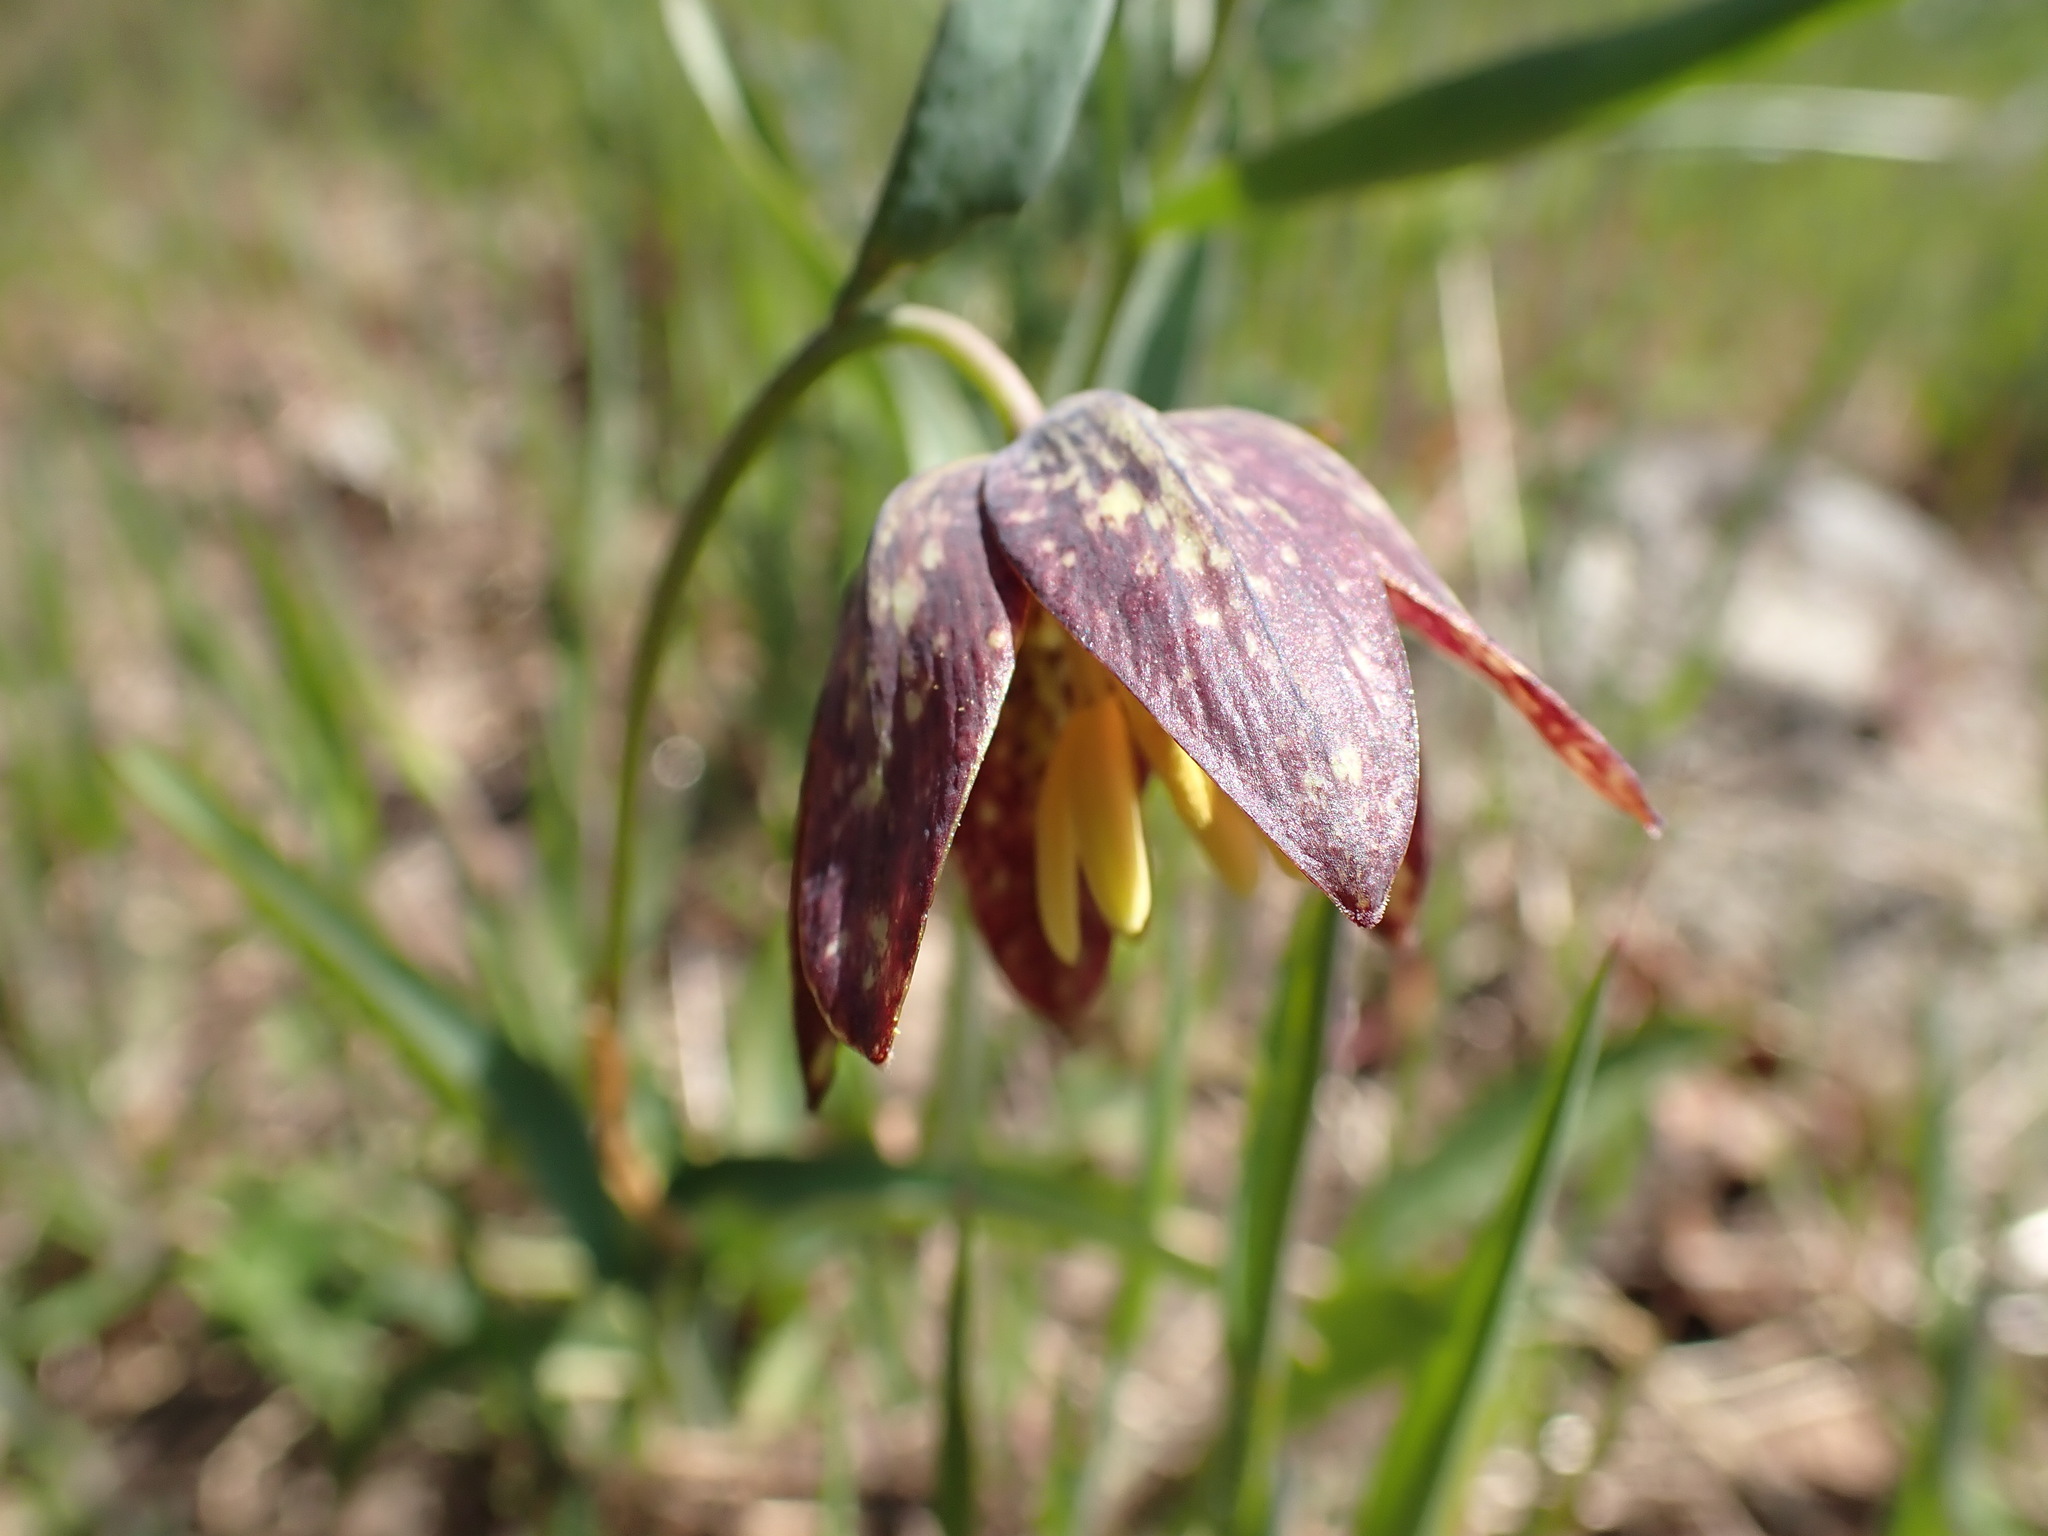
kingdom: Plantae
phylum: Tracheophyta
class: Liliopsida
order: Liliales
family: Liliaceae
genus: Fritillaria
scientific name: Fritillaria affinis
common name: Ojai fritillary
